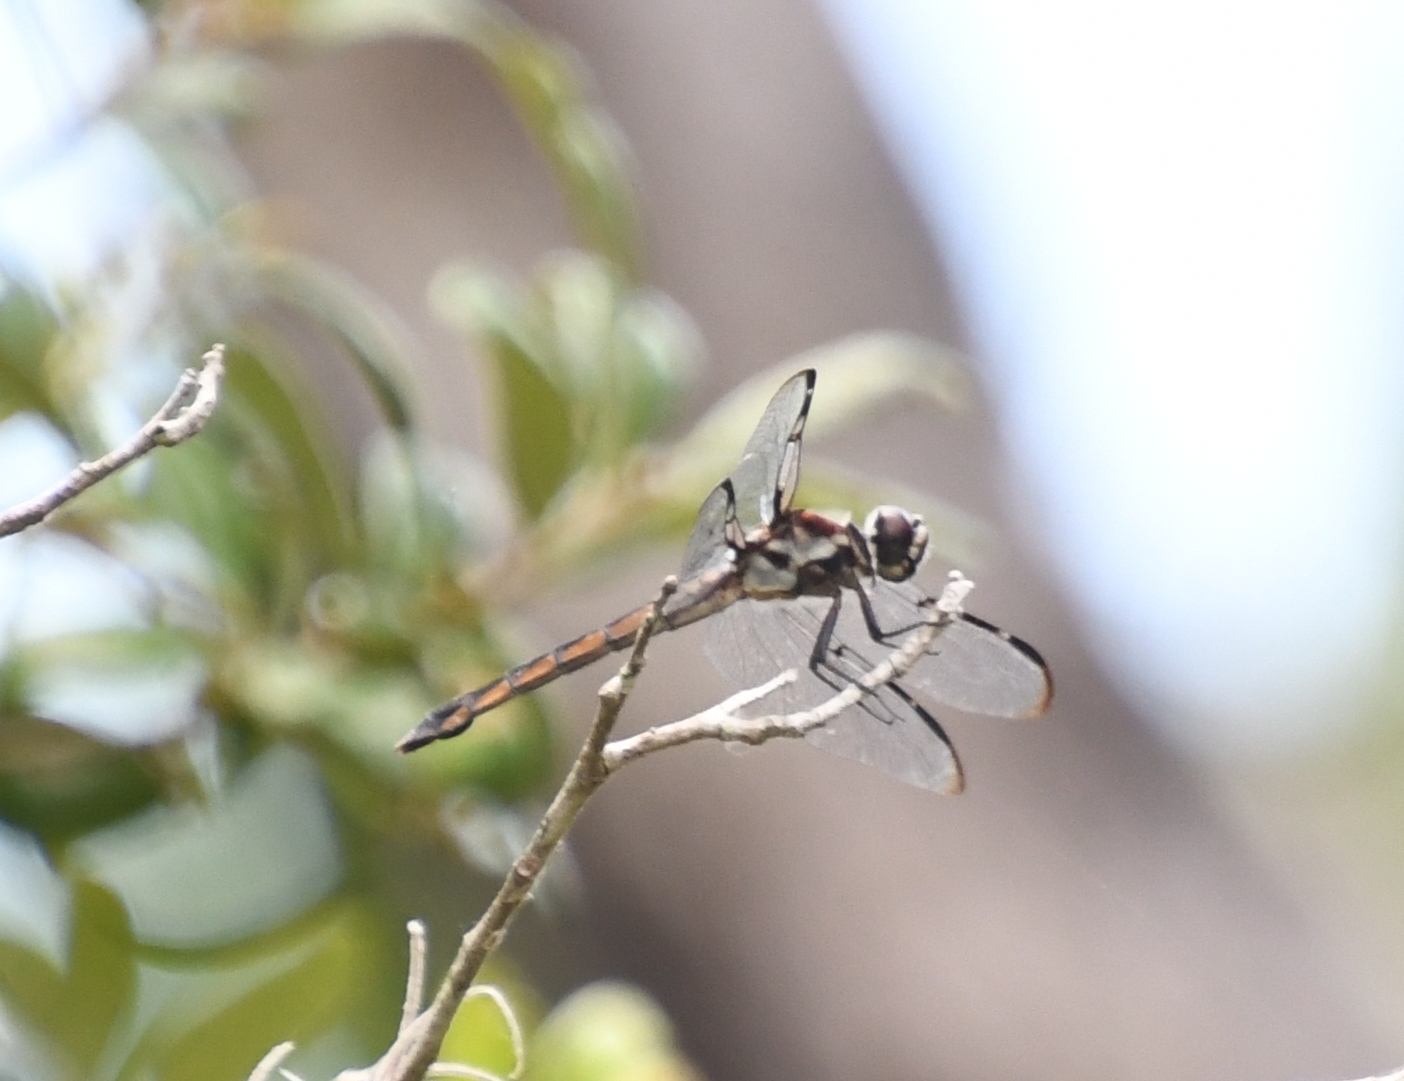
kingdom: Animalia
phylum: Arthropoda
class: Insecta
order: Odonata
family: Libellulidae
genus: Libellula
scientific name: Libellula axilena
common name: Bar-winged skimmer
